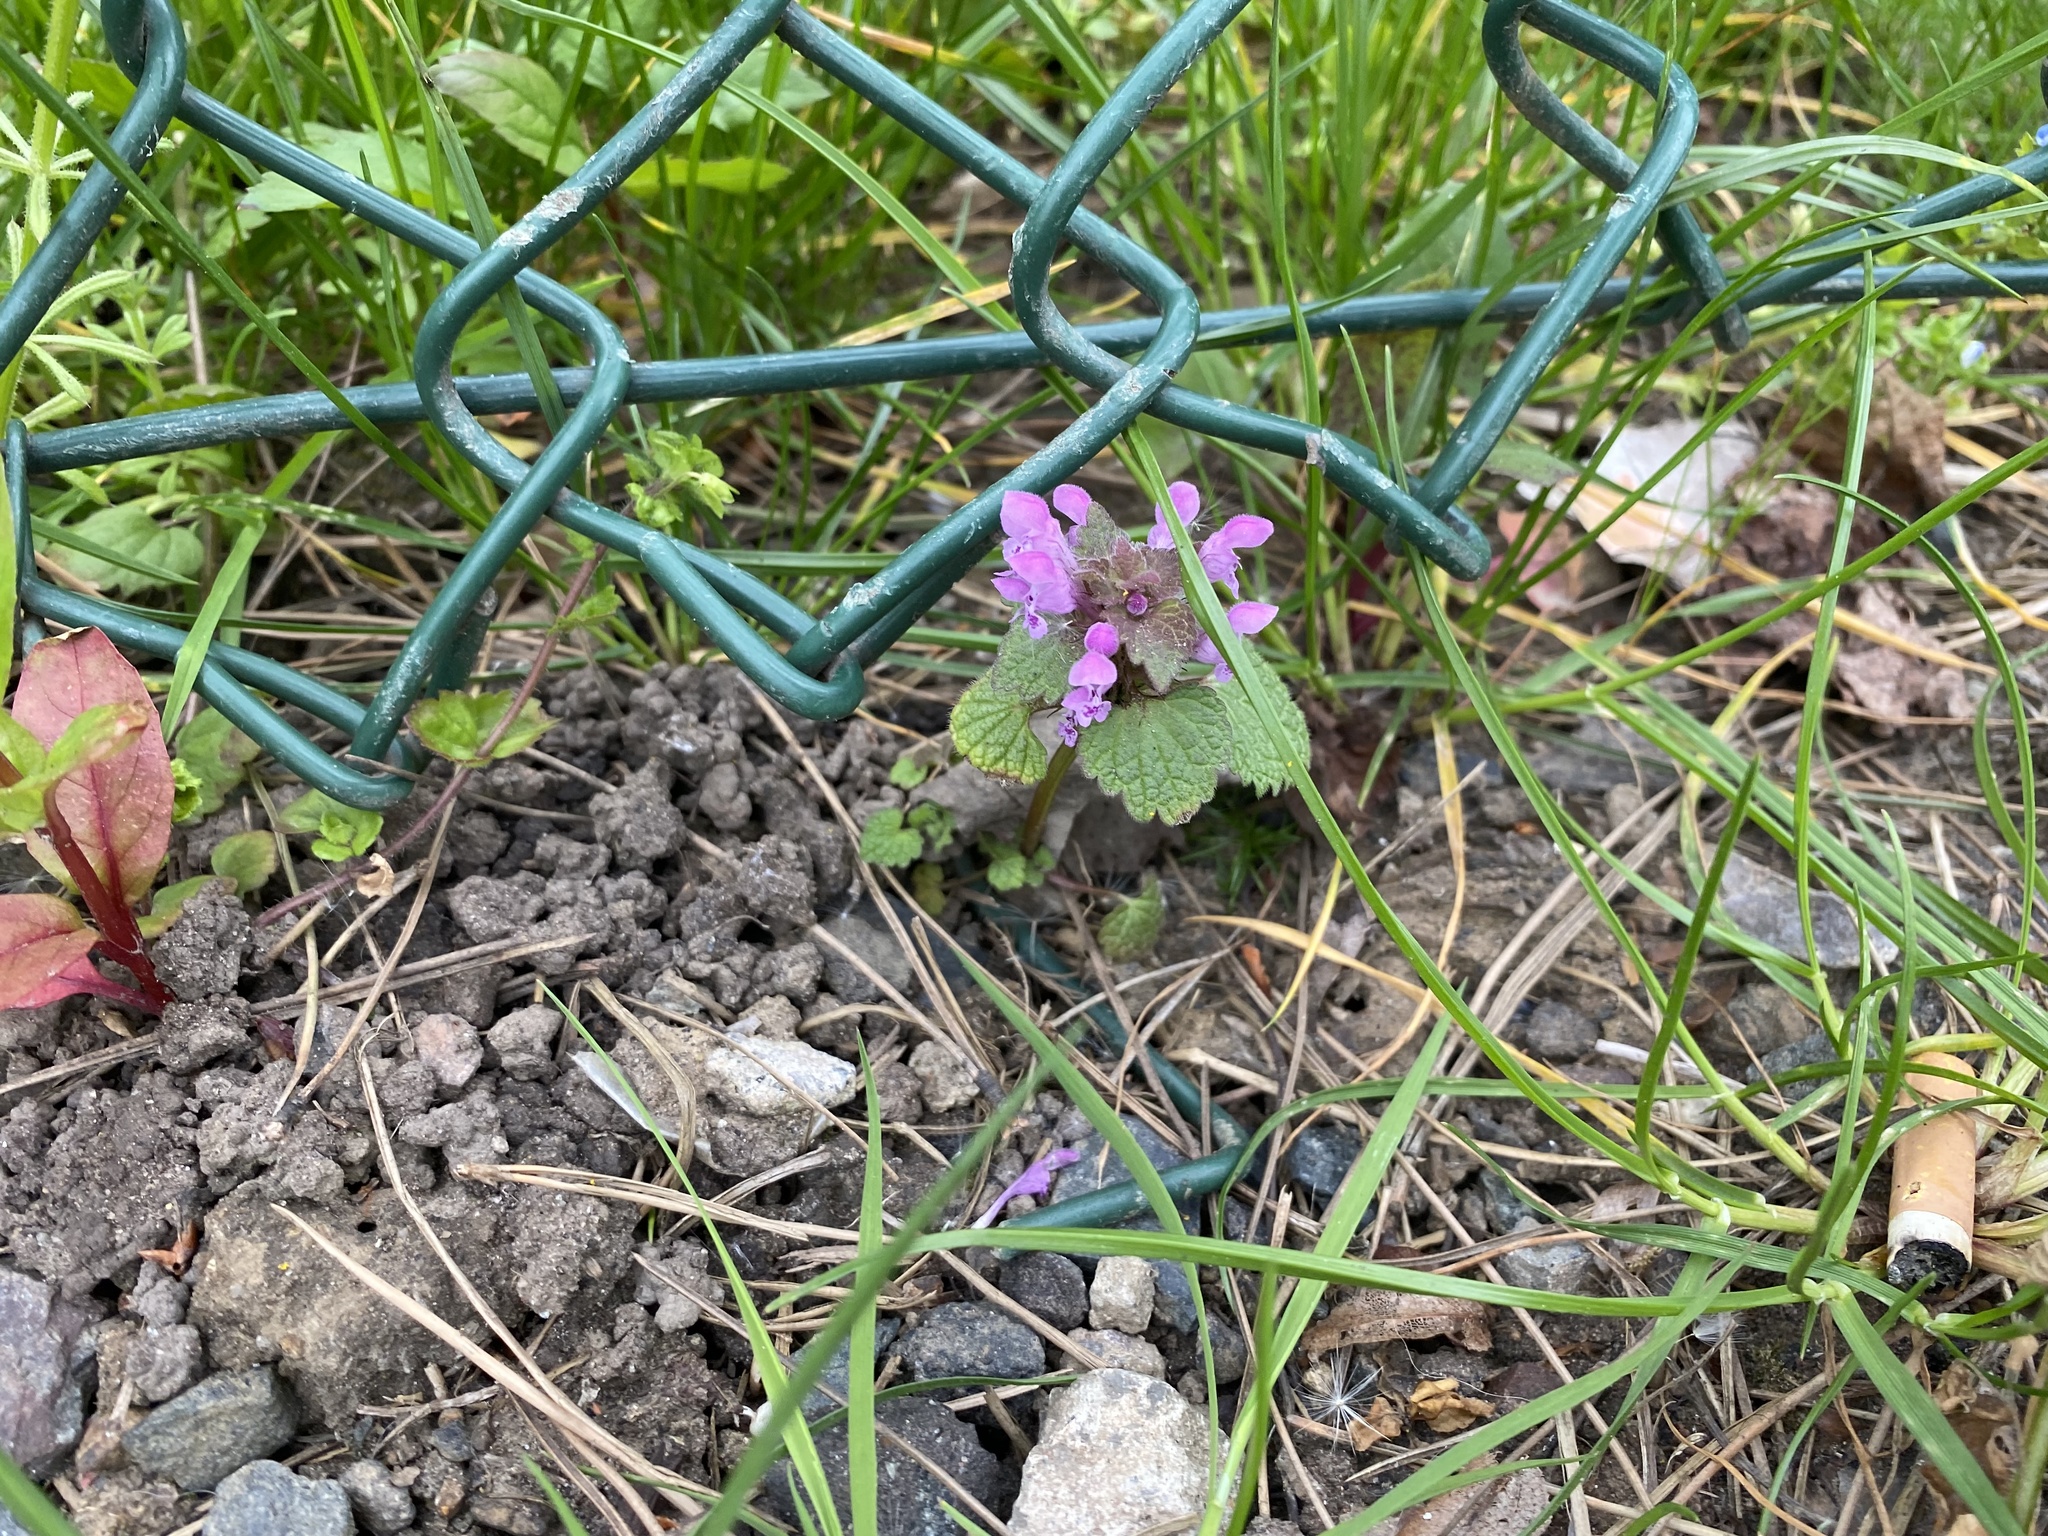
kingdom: Plantae
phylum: Tracheophyta
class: Magnoliopsida
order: Lamiales
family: Lamiaceae
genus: Lamium
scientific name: Lamium purpureum
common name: Red dead-nettle
